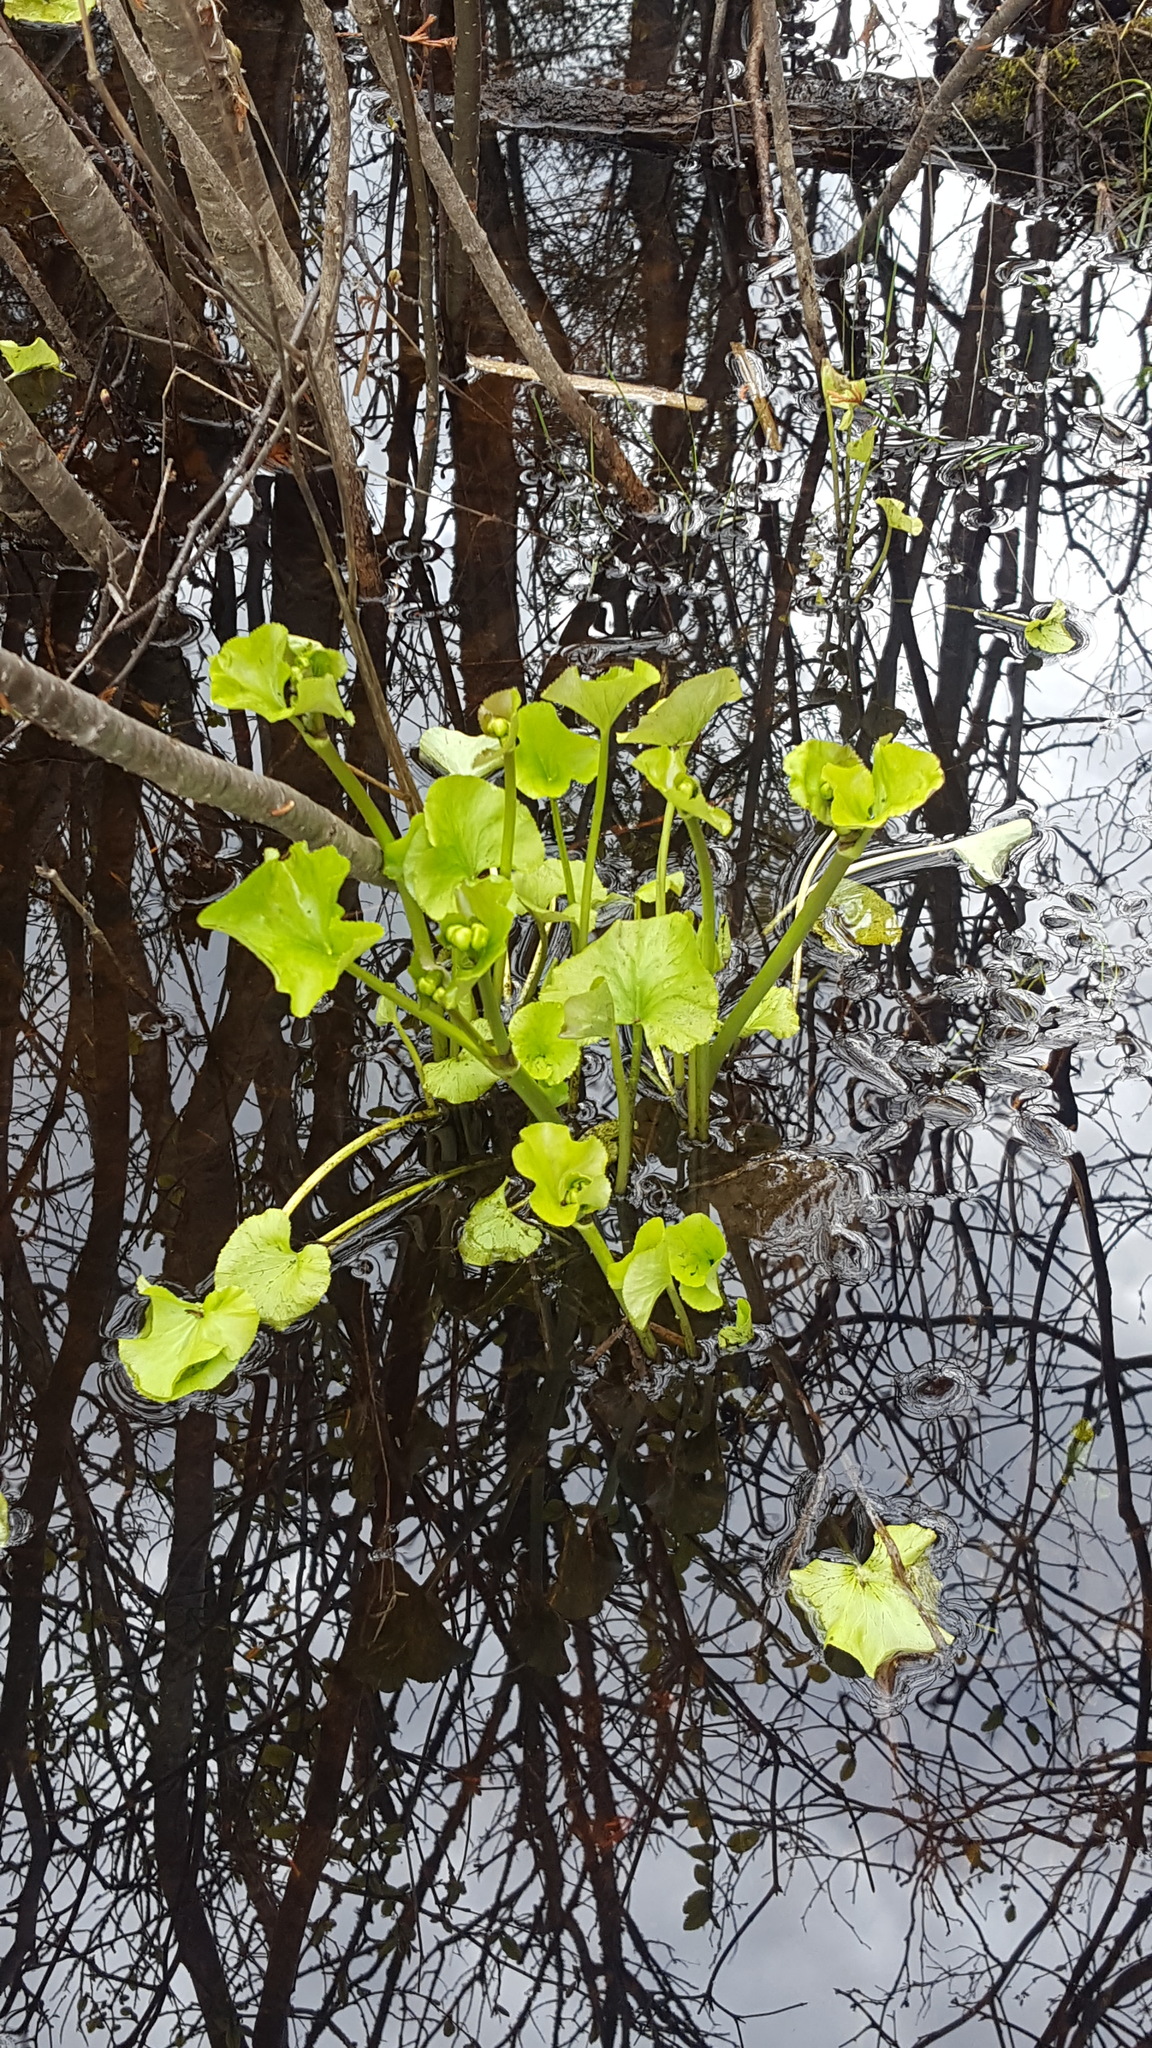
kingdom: Plantae
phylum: Tracheophyta
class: Magnoliopsida
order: Ranunculales
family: Ranunculaceae
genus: Caltha
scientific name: Caltha palustris
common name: Marsh marigold
